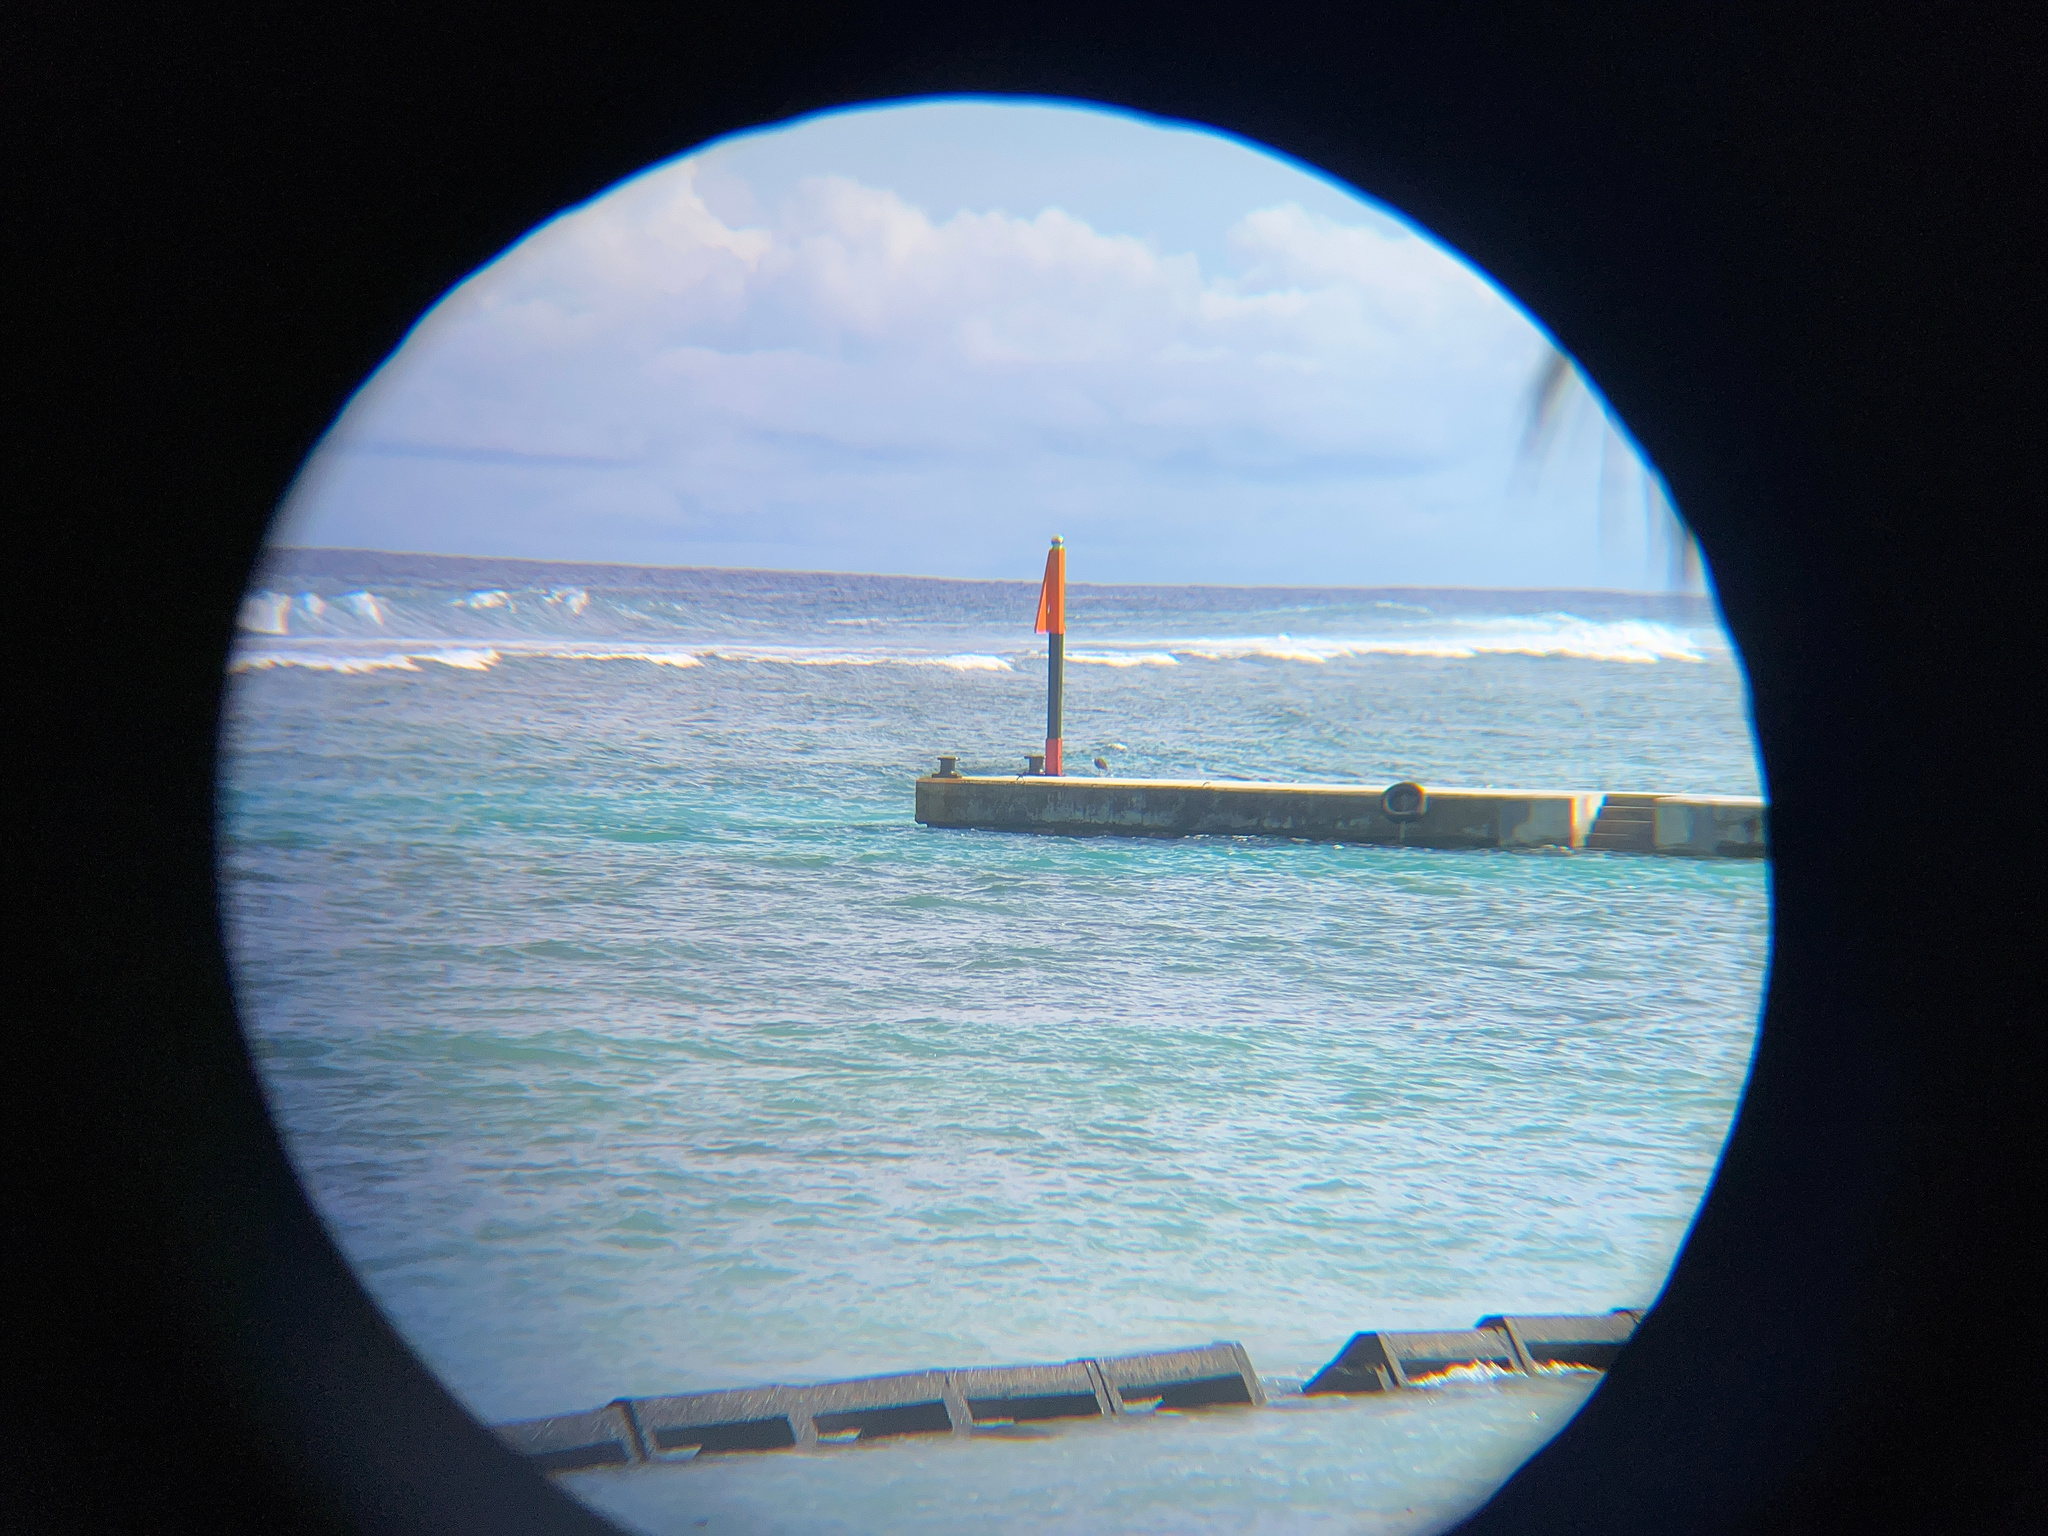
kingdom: Animalia
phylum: Chordata
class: Aves
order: Pelecaniformes
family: Ardeidae
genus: Egretta
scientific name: Egretta sacra
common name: Pacific reef heron
